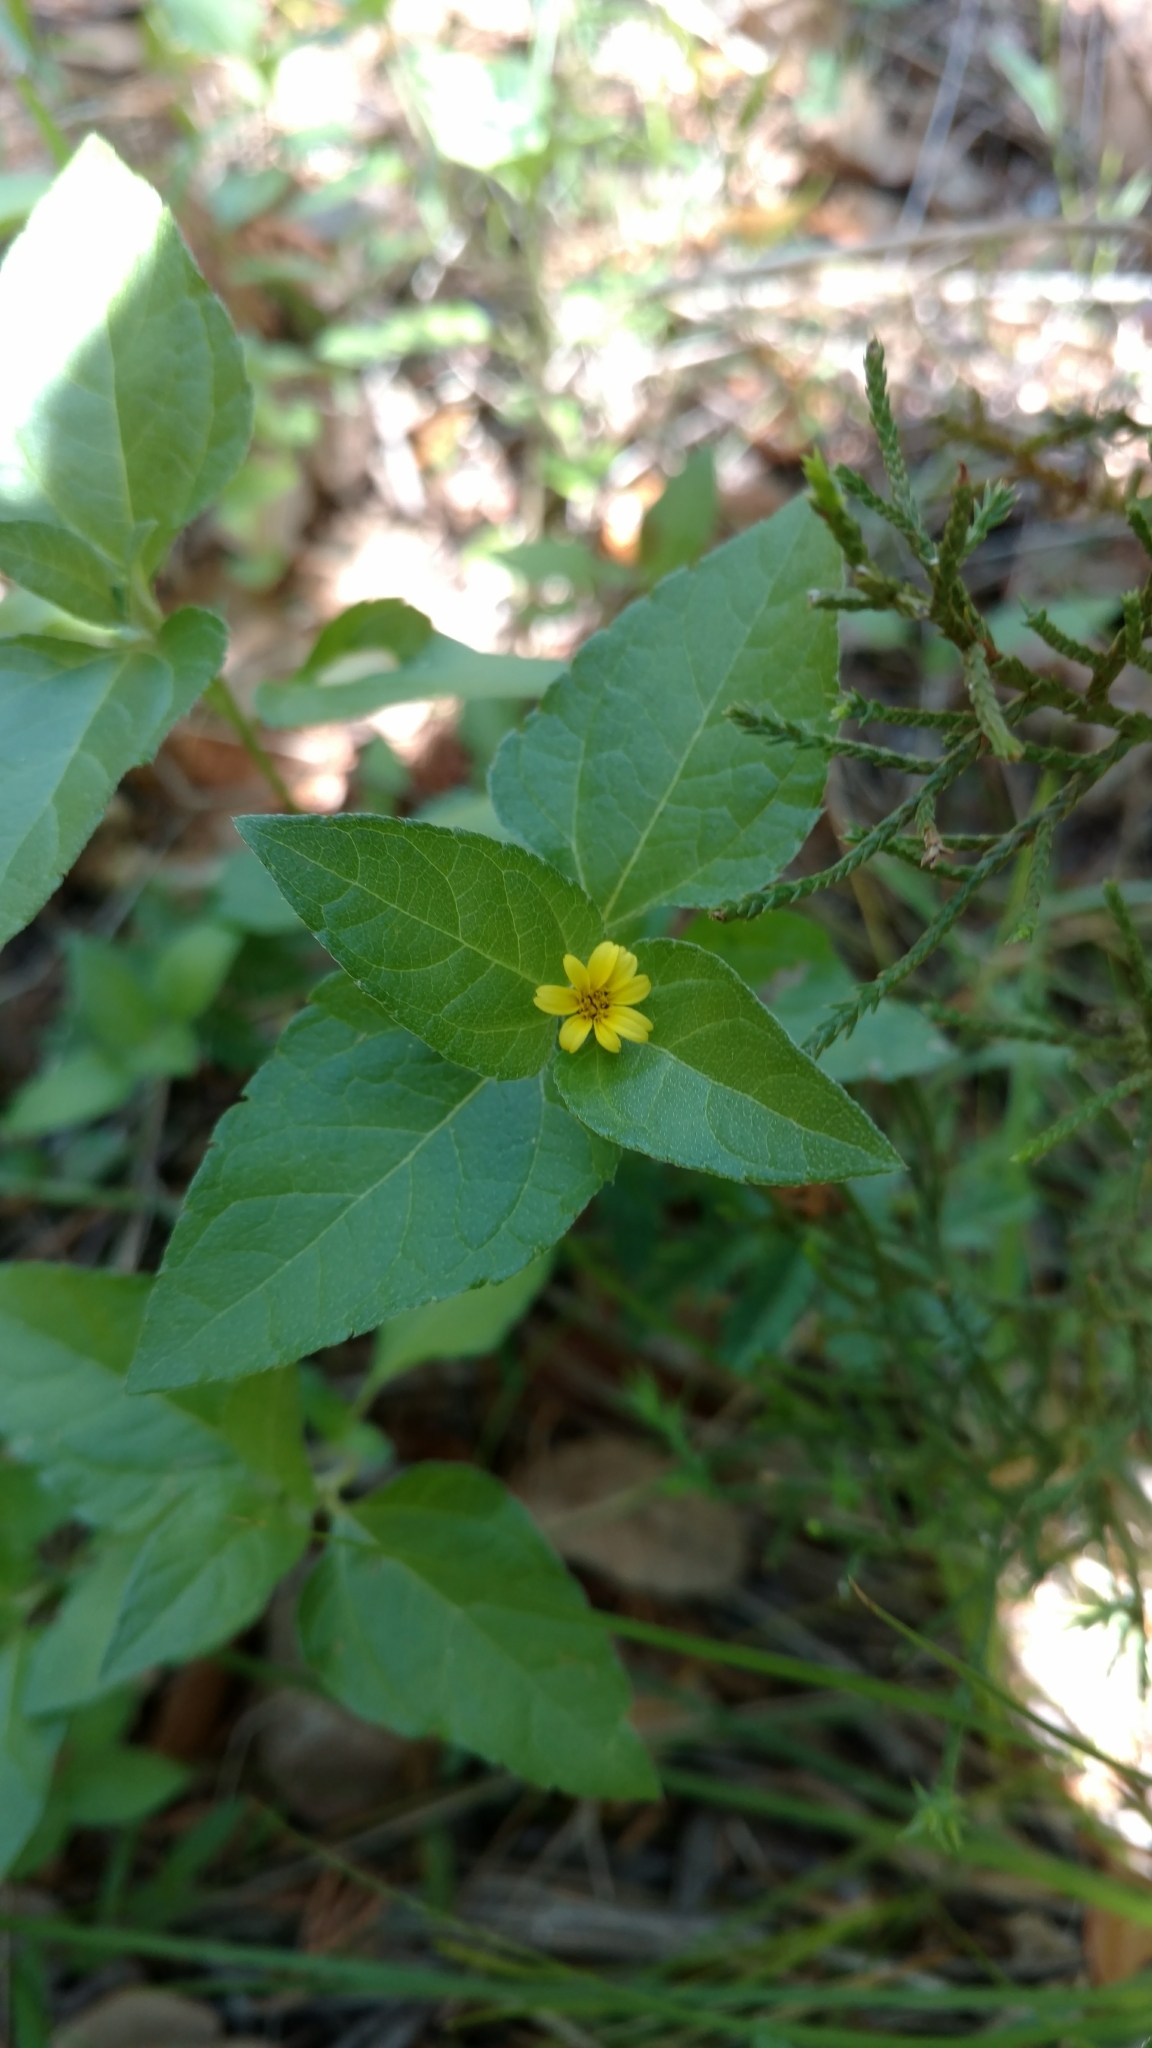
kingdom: Plantae
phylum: Tracheophyta
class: Magnoliopsida
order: Asterales
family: Asteraceae
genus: Calyptocarpus
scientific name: Calyptocarpus vialis
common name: Straggler daisy
